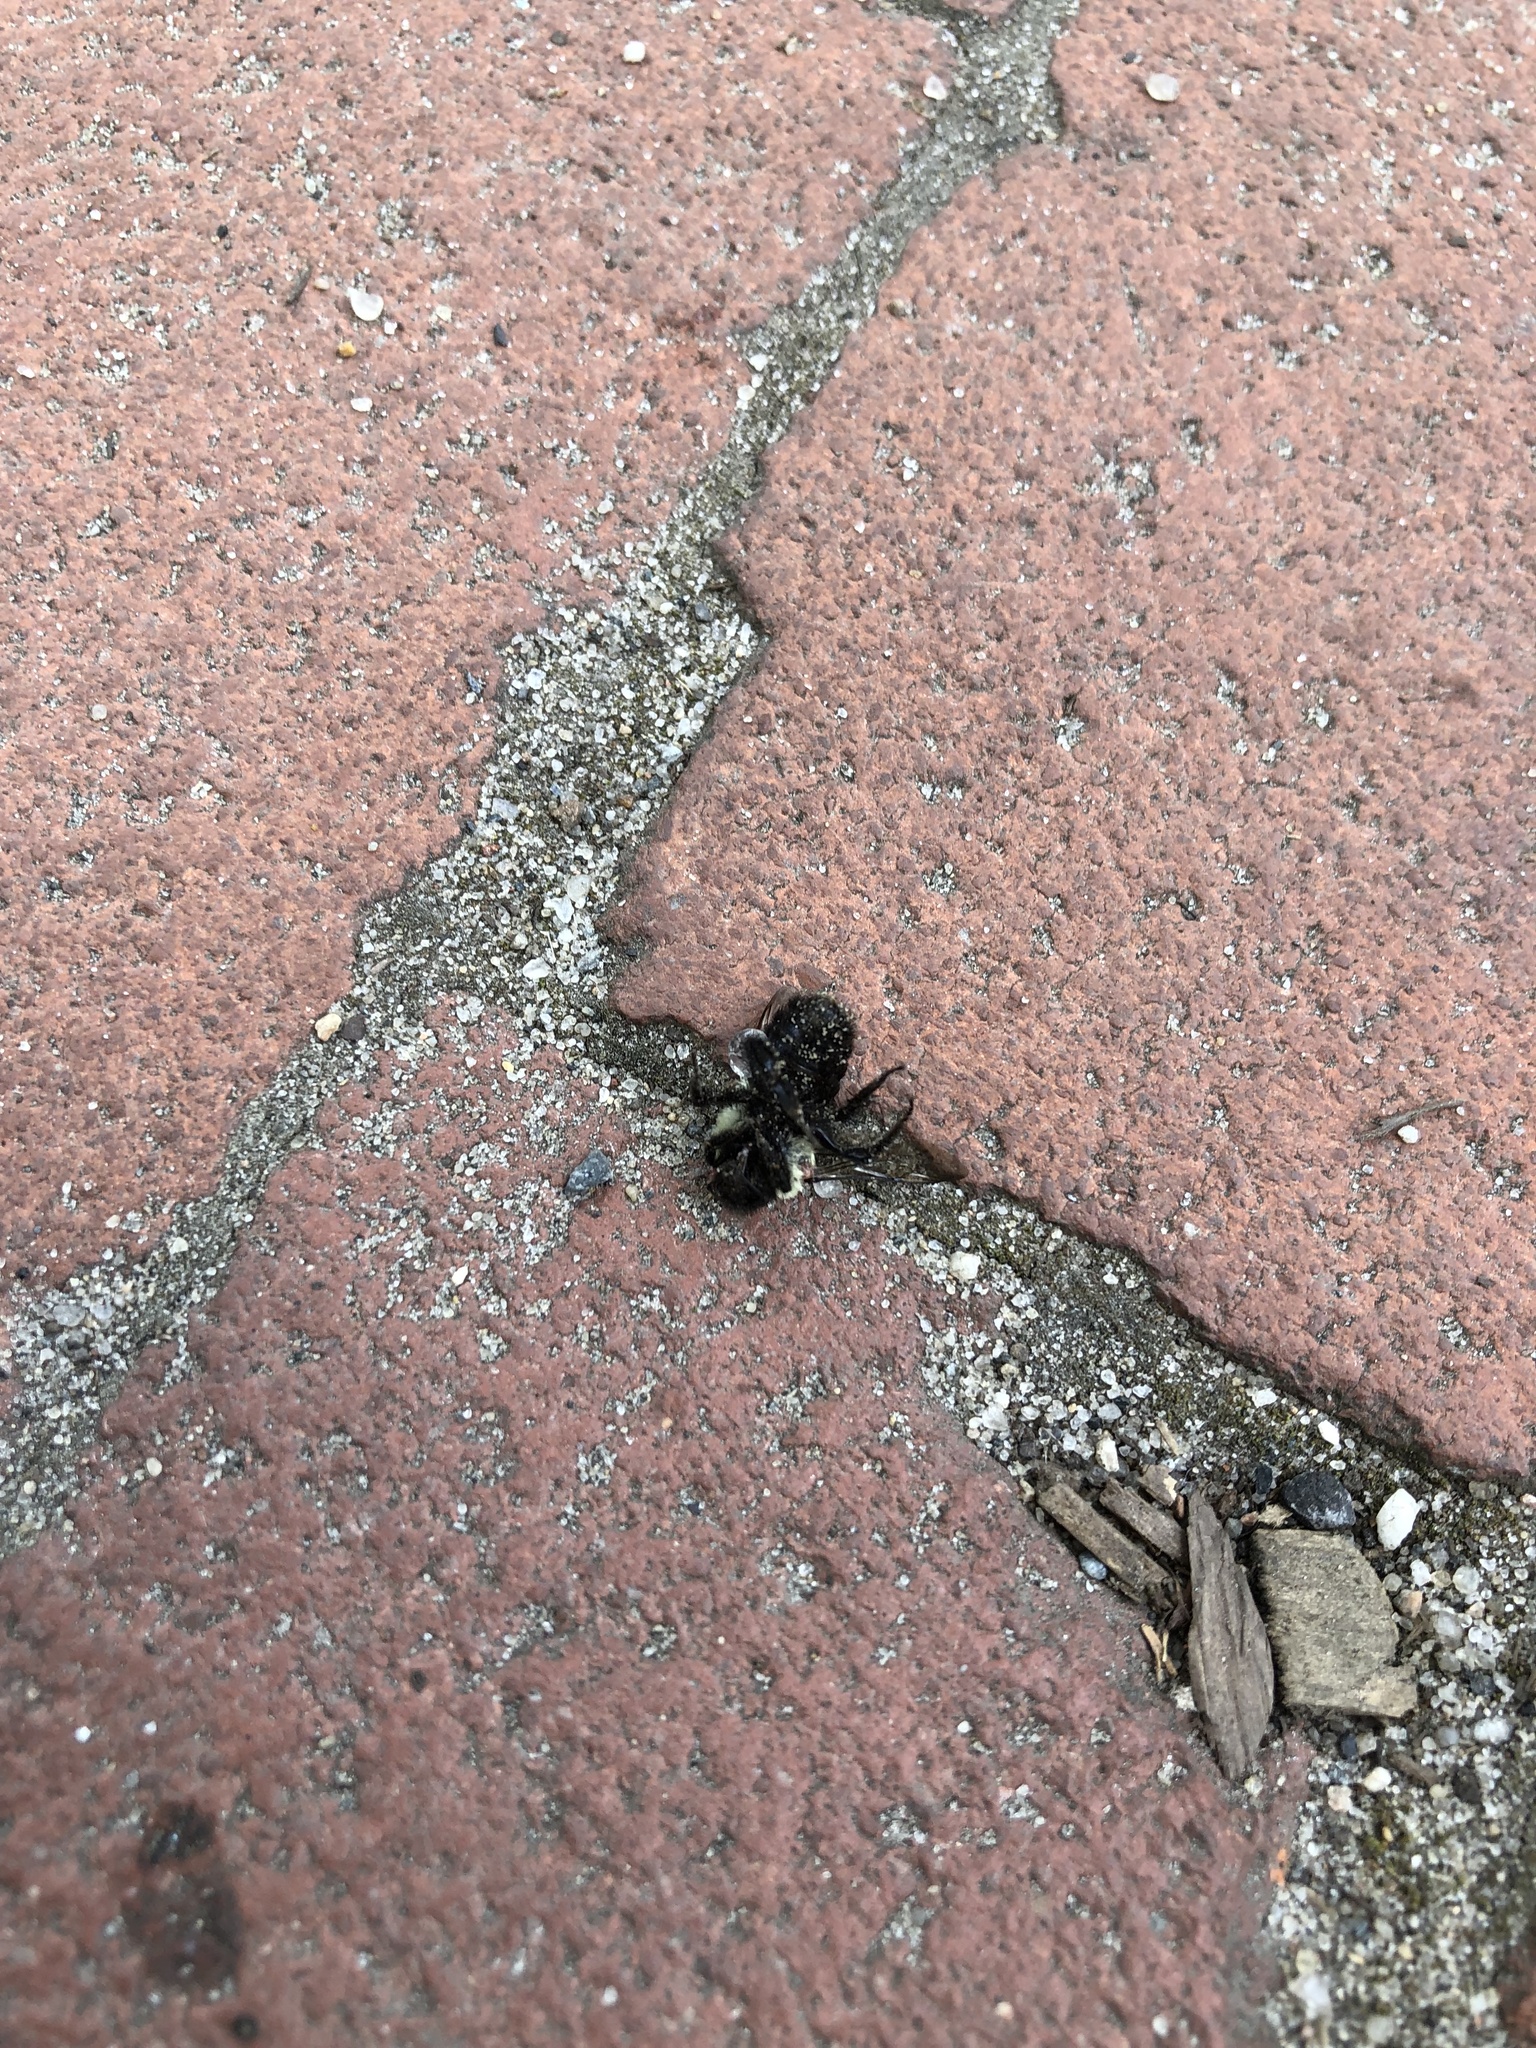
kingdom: Animalia
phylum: Arthropoda
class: Insecta
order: Hymenoptera
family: Apidae
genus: Bombus
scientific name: Bombus impatiens
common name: Common eastern bumble bee
